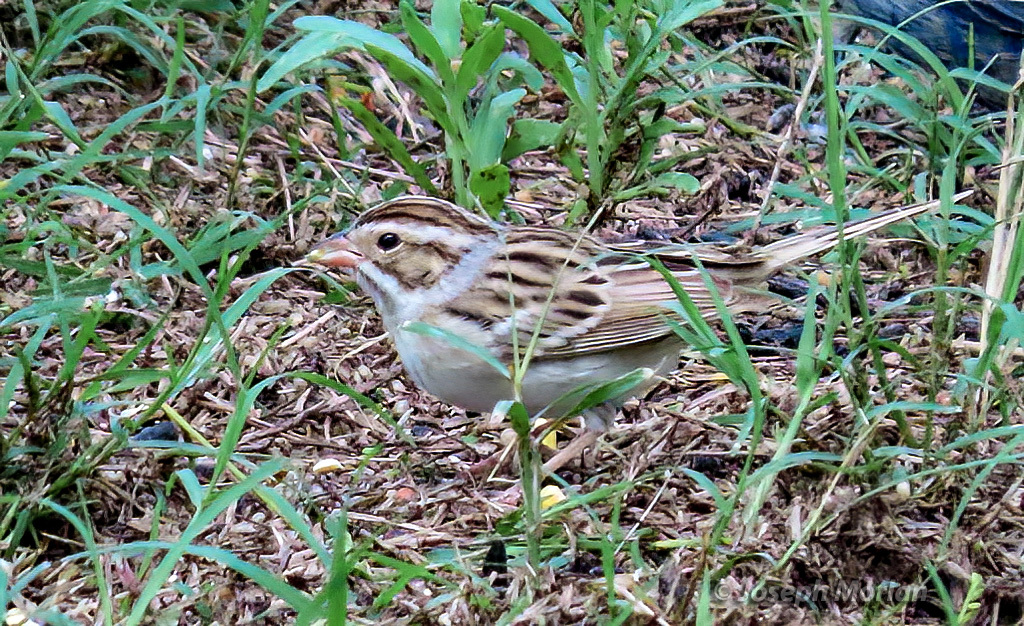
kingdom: Animalia
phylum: Chordata
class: Aves
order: Passeriformes
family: Passerellidae
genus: Spizella
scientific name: Spizella pallida
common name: Clay-colored sparrow
